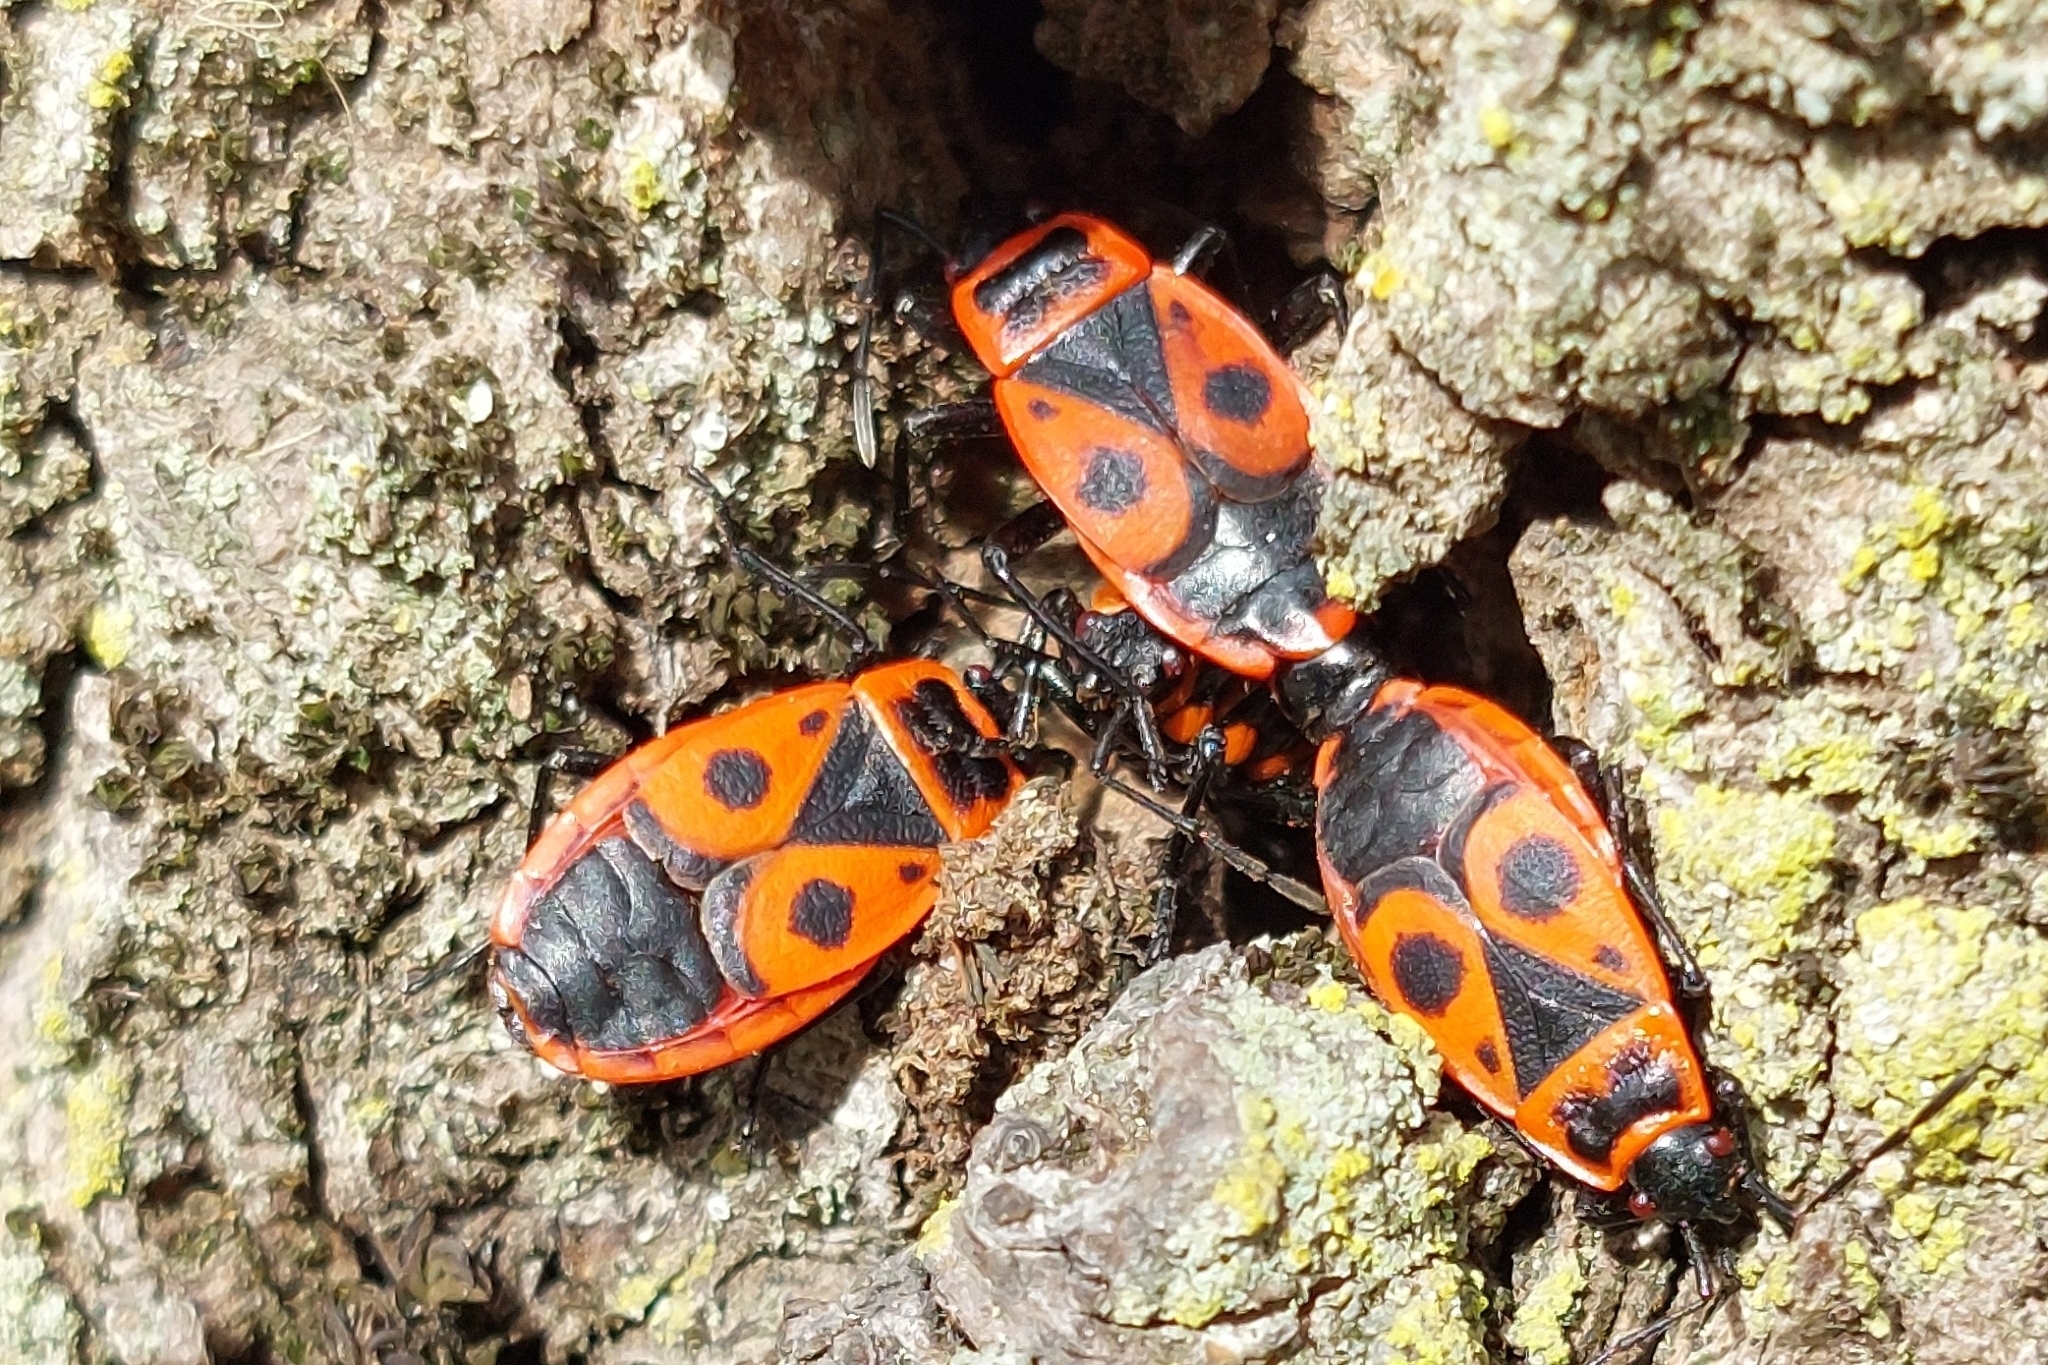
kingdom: Animalia
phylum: Arthropoda
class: Insecta
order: Hemiptera
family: Pyrrhocoridae
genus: Pyrrhocoris
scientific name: Pyrrhocoris apterus
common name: Firebug
